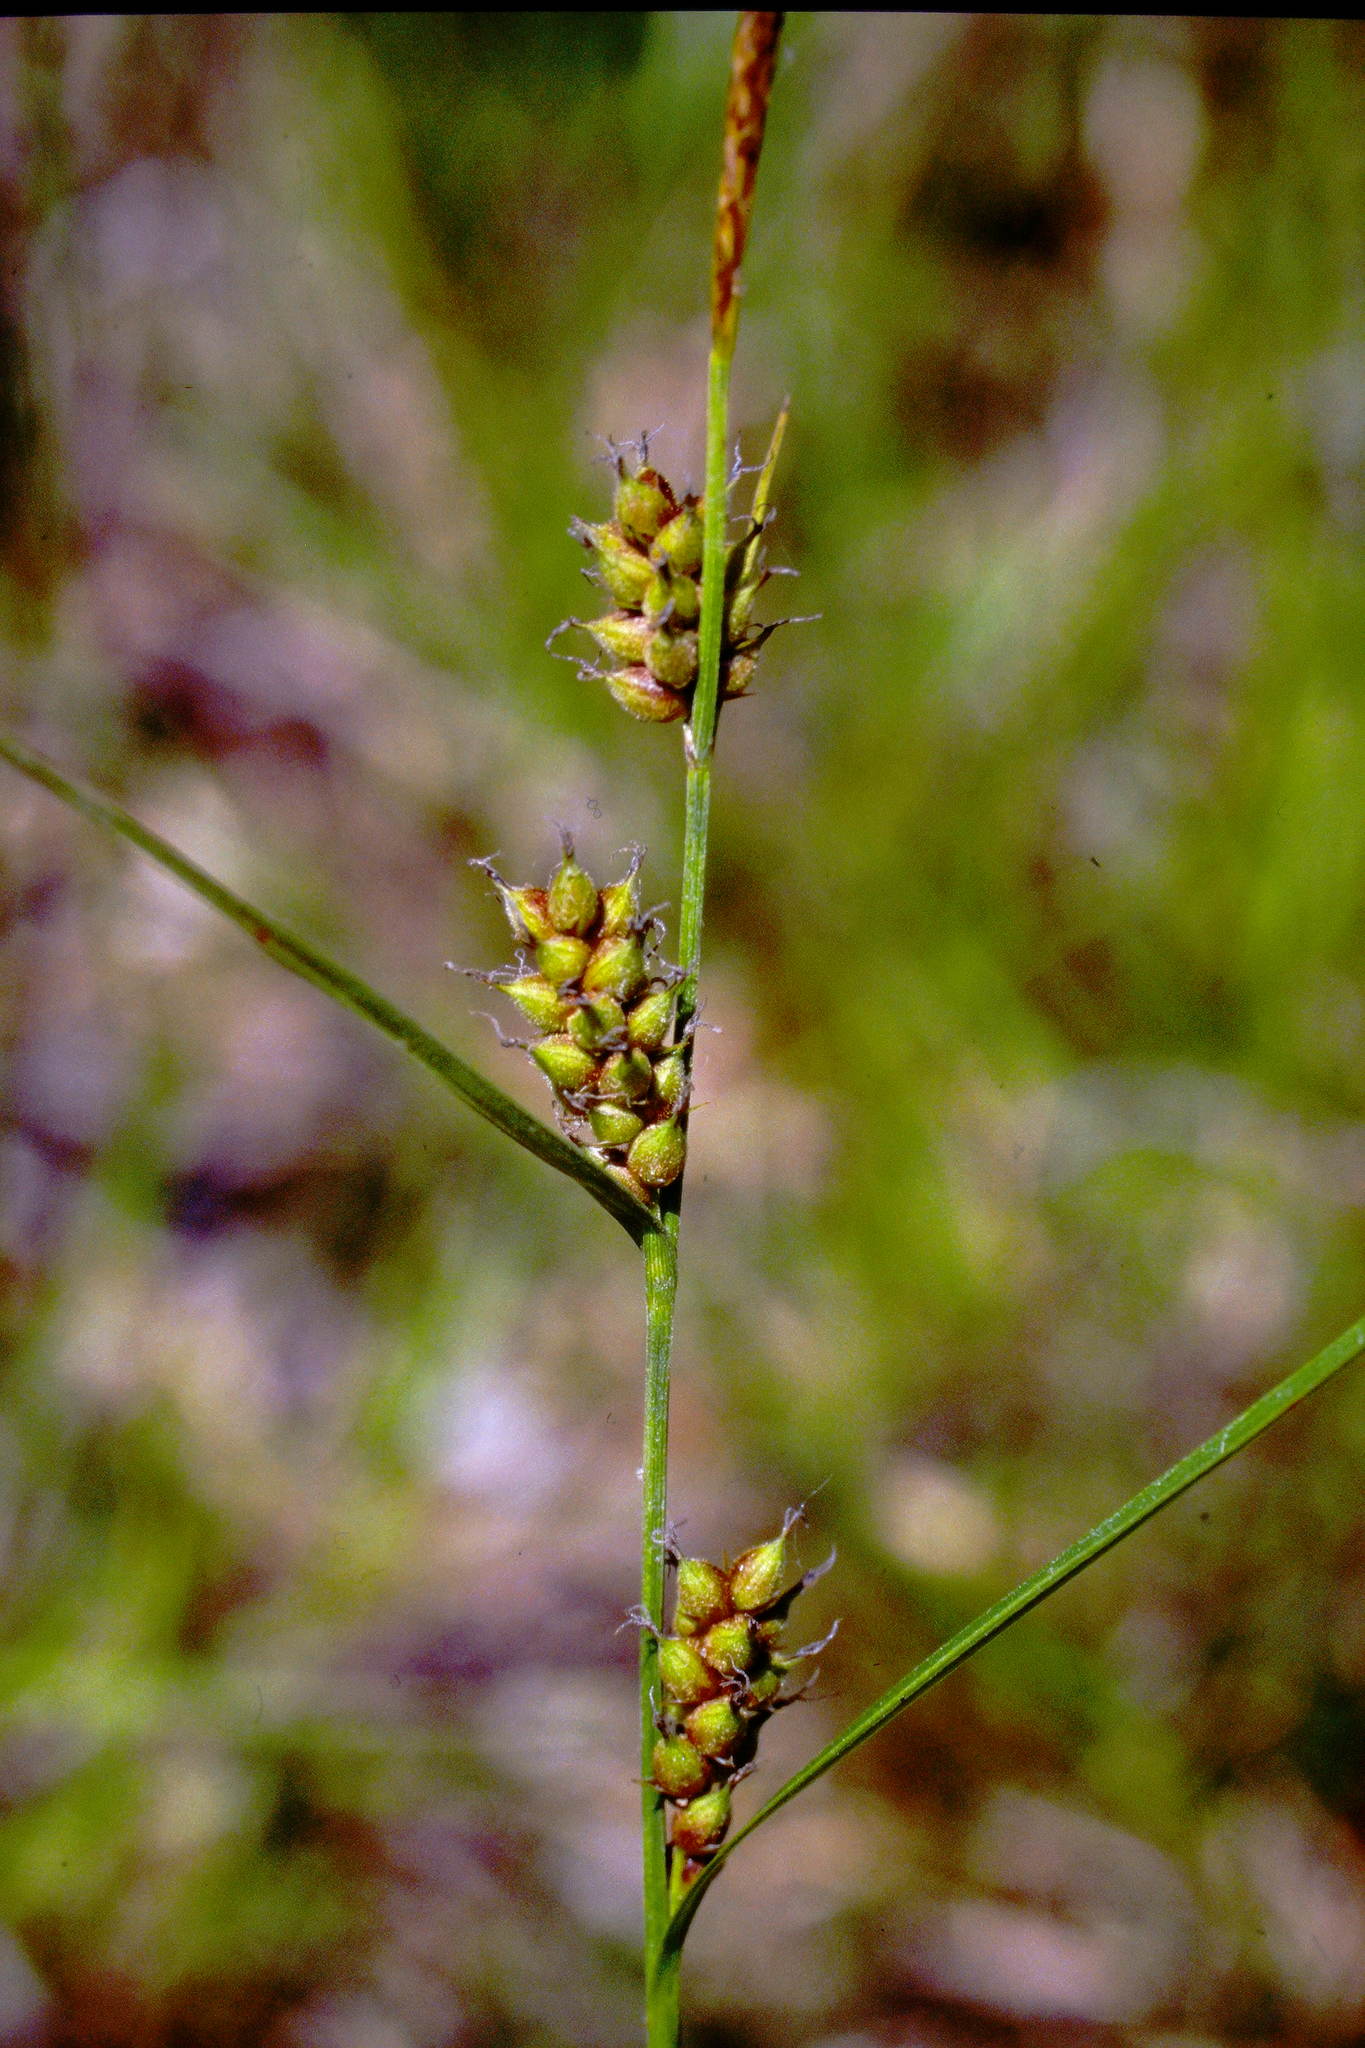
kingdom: Plantae
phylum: Tracheophyta
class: Liliopsida
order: Poales
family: Cyperaceae
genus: Carex
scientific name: Carex houghtoniana
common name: Houghton's sedge
